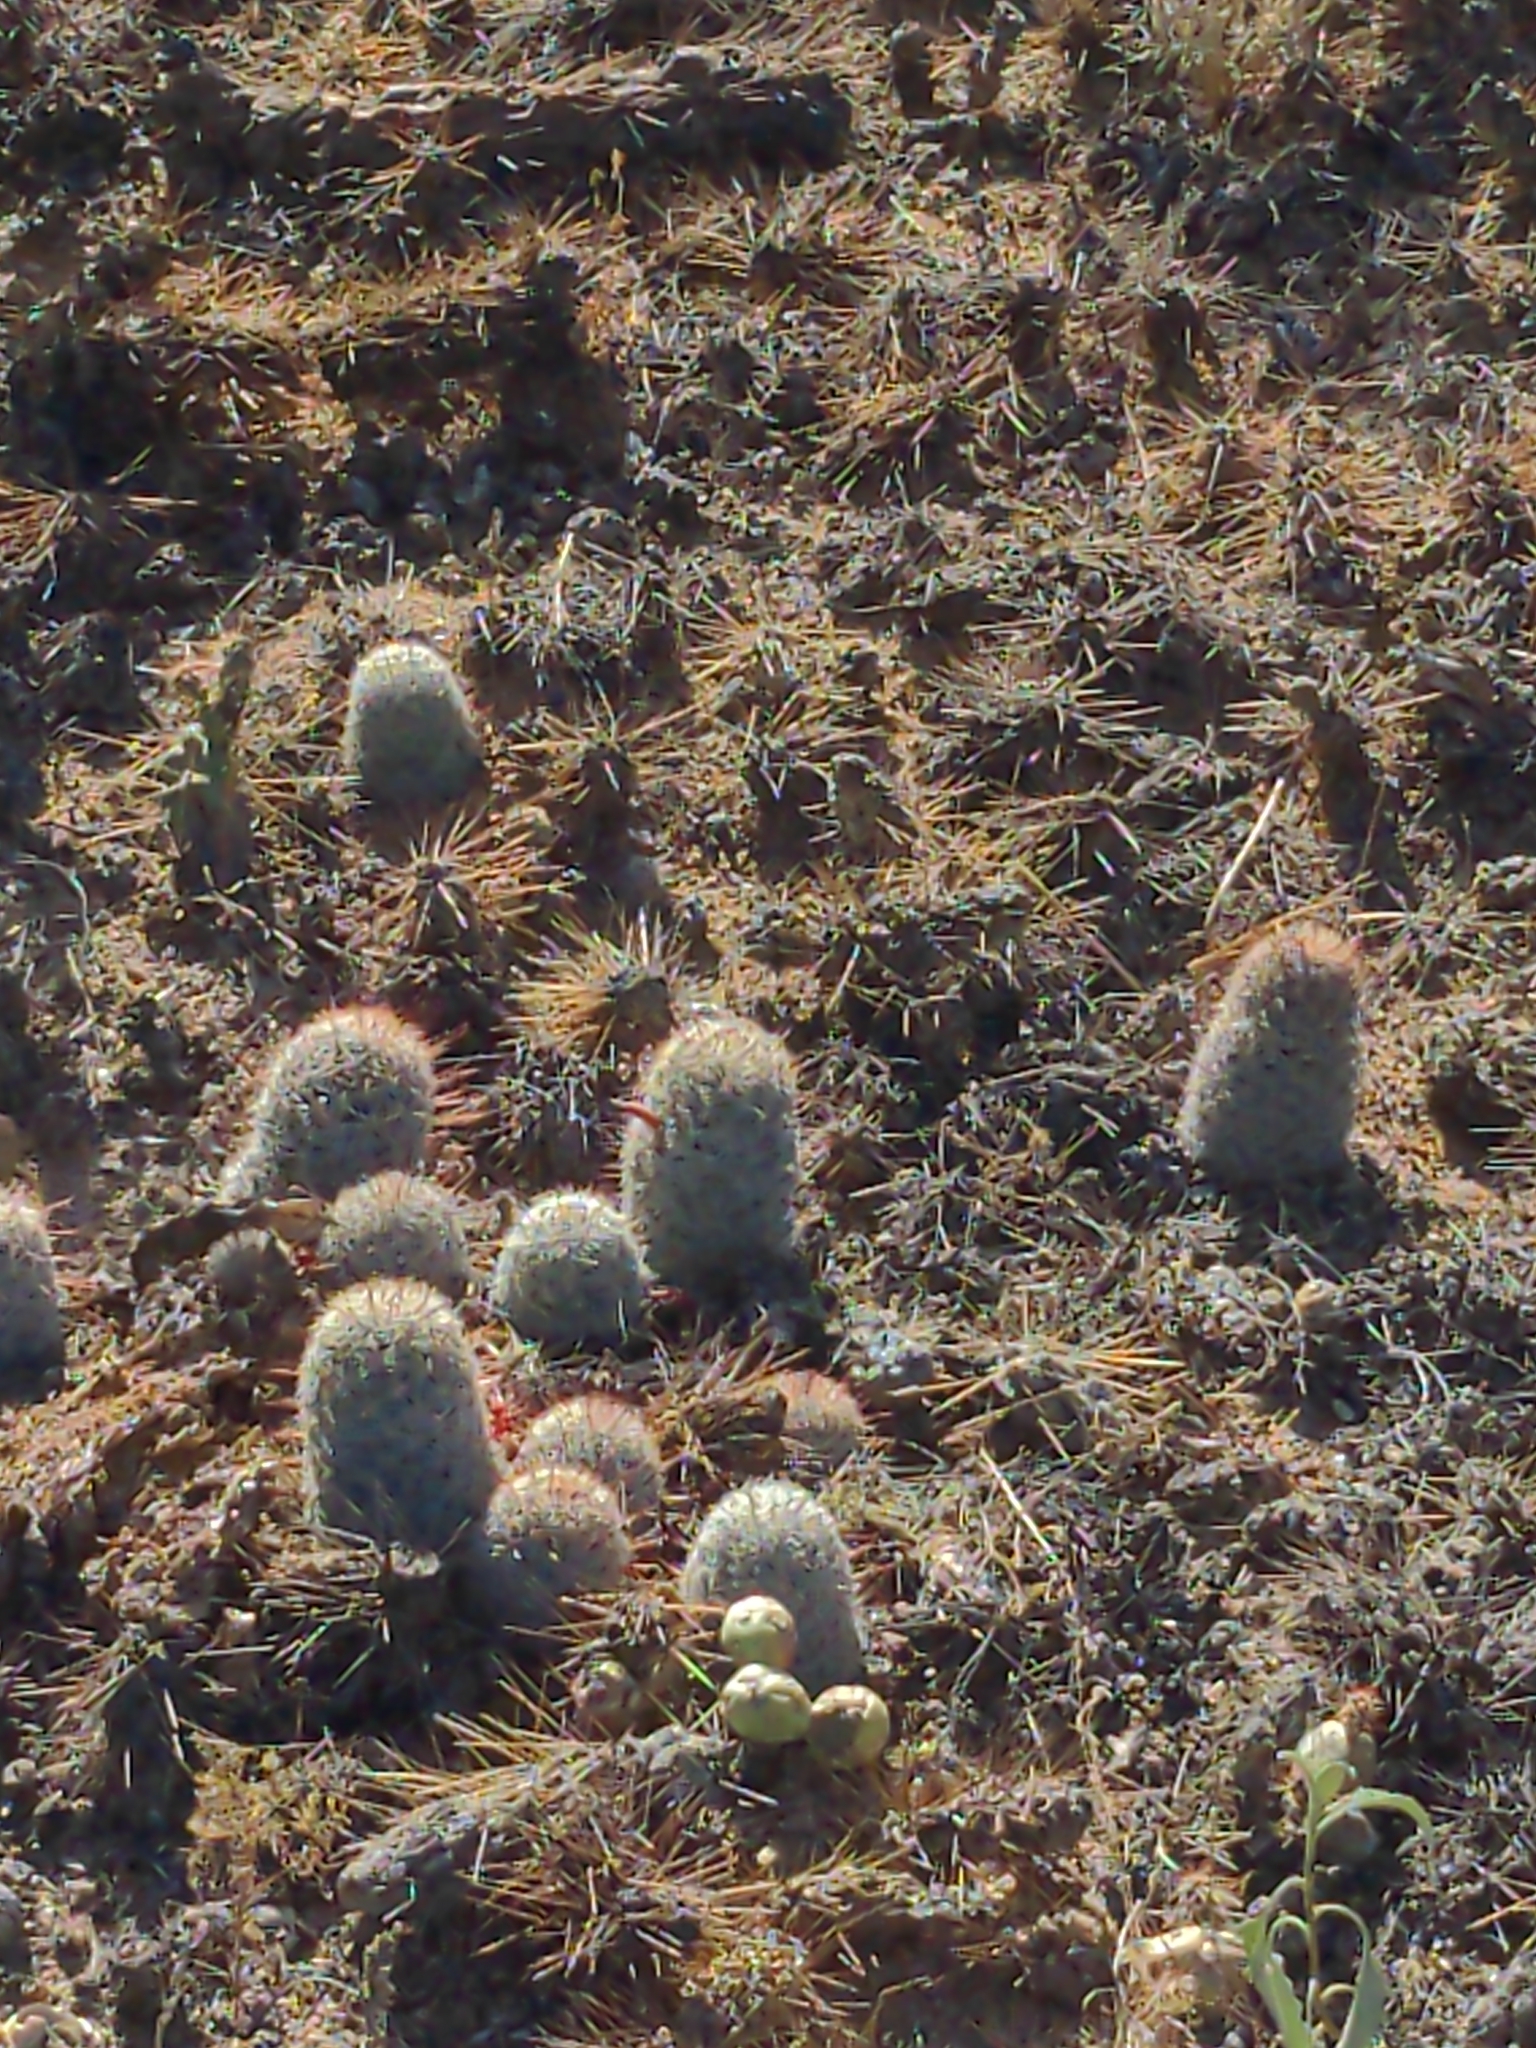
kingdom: Plantae
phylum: Tracheophyta
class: Magnoliopsida
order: Caryophyllales
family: Cactaceae
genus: Cochemiea
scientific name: Cochemiea grahamii
